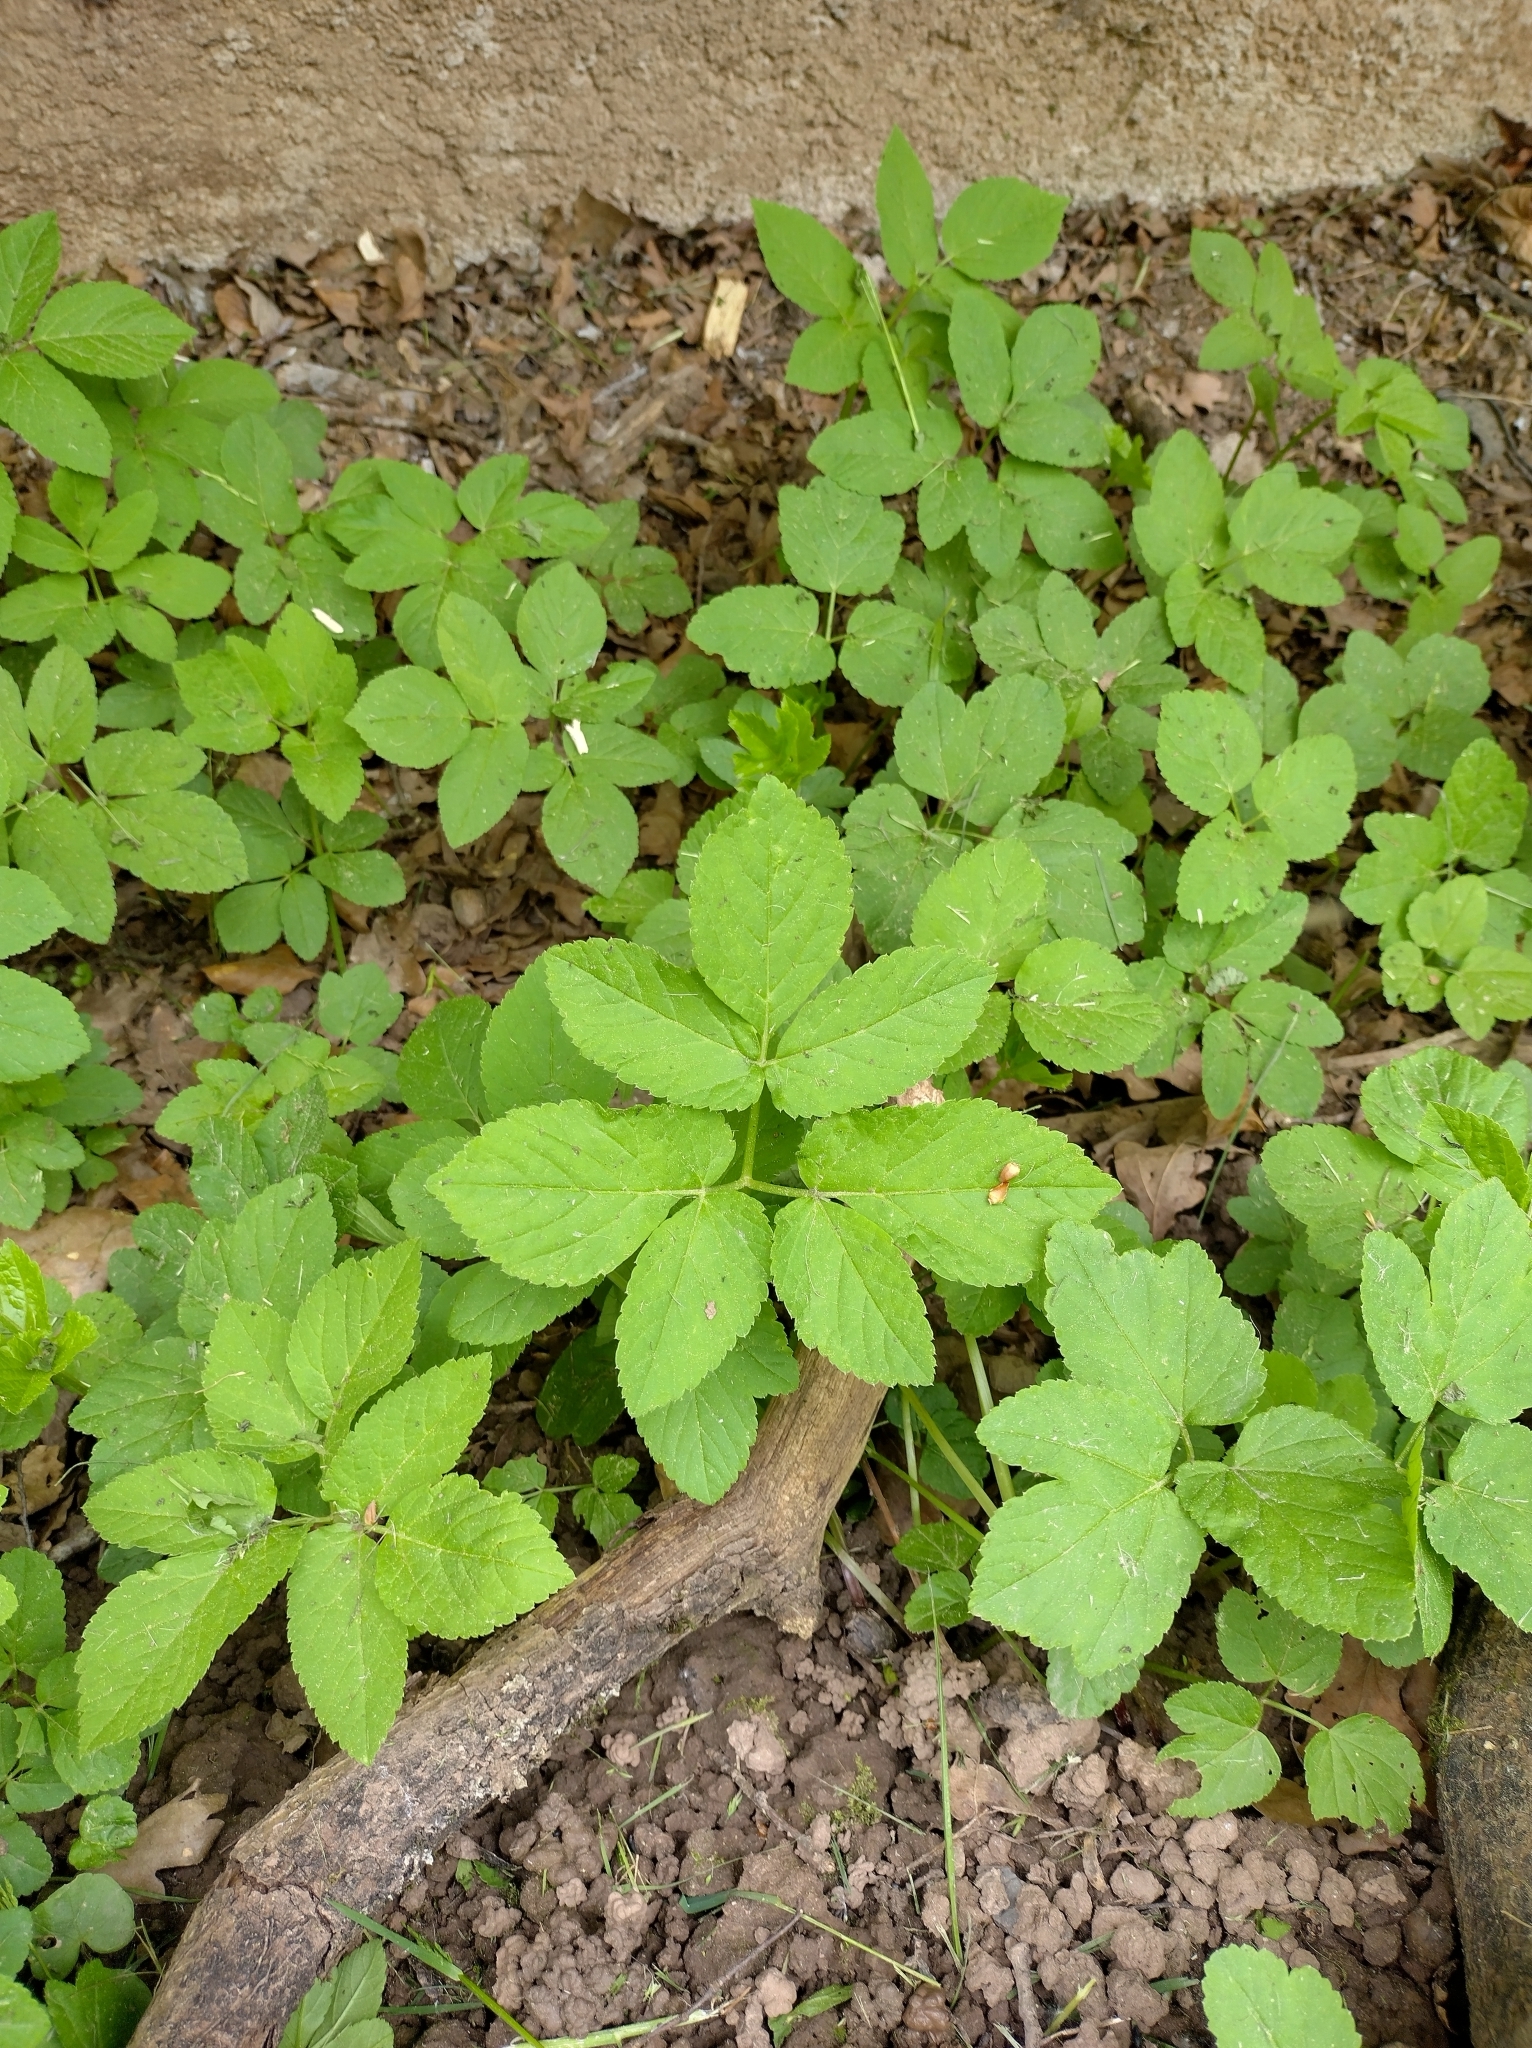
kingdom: Plantae
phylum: Tracheophyta
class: Magnoliopsida
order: Apiales
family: Apiaceae
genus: Aegopodium
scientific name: Aegopodium podagraria
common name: Ground-elder
